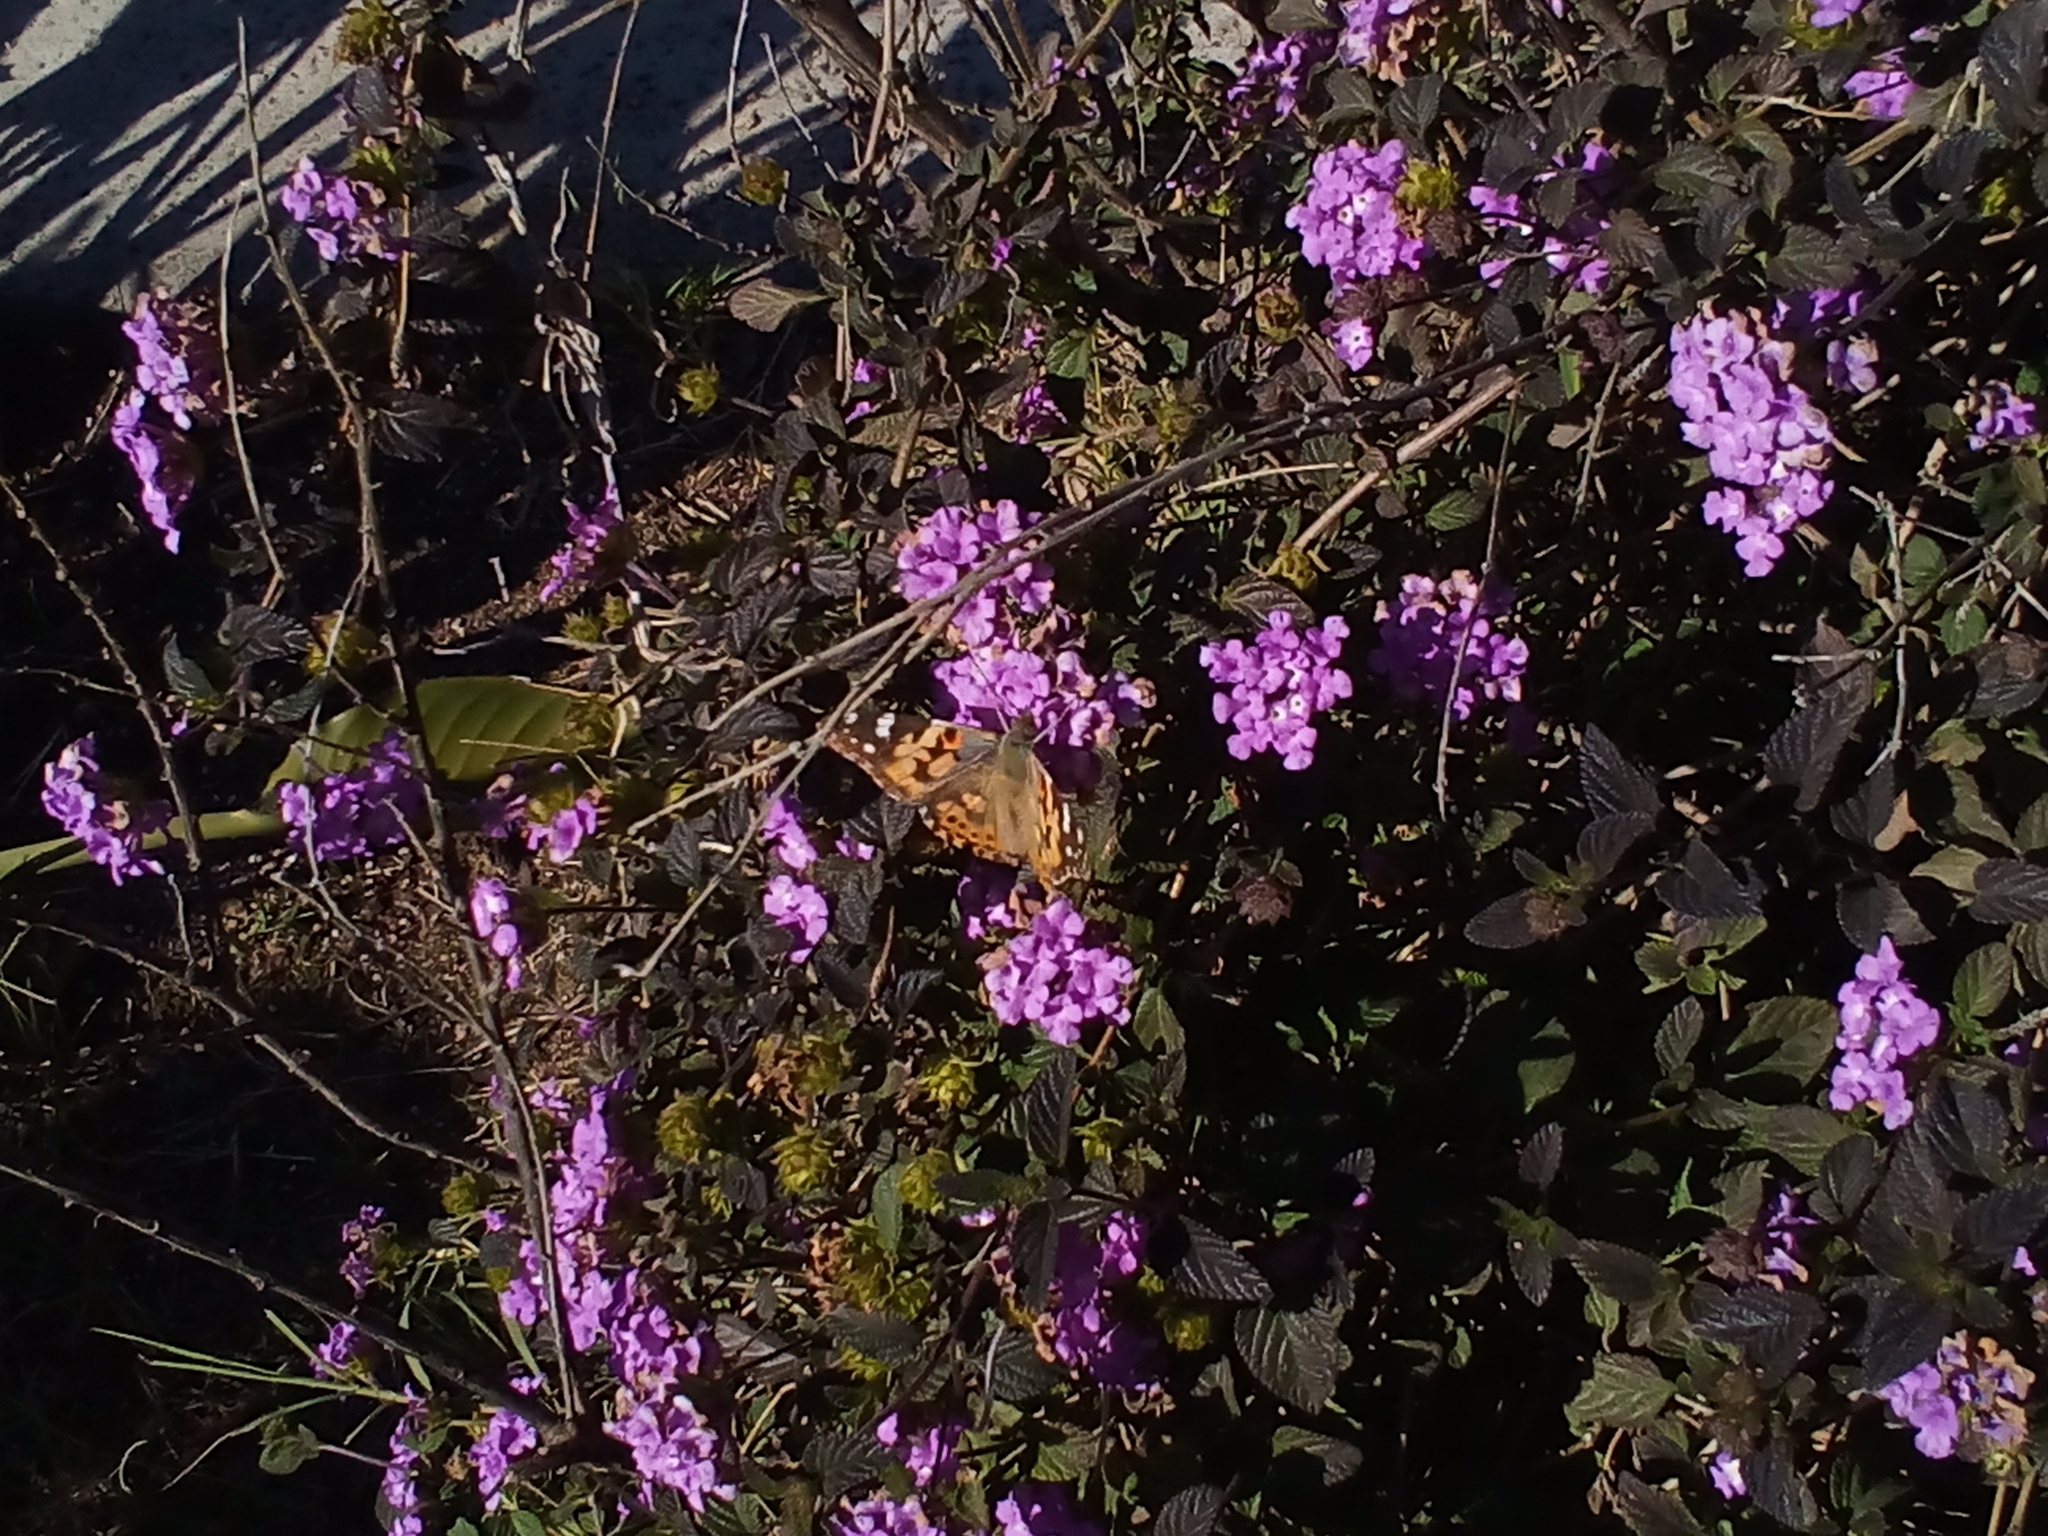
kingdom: Animalia
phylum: Arthropoda
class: Insecta
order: Lepidoptera
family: Nymphalidae
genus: Vanessa
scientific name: Vanessa cardui
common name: Painted lady
